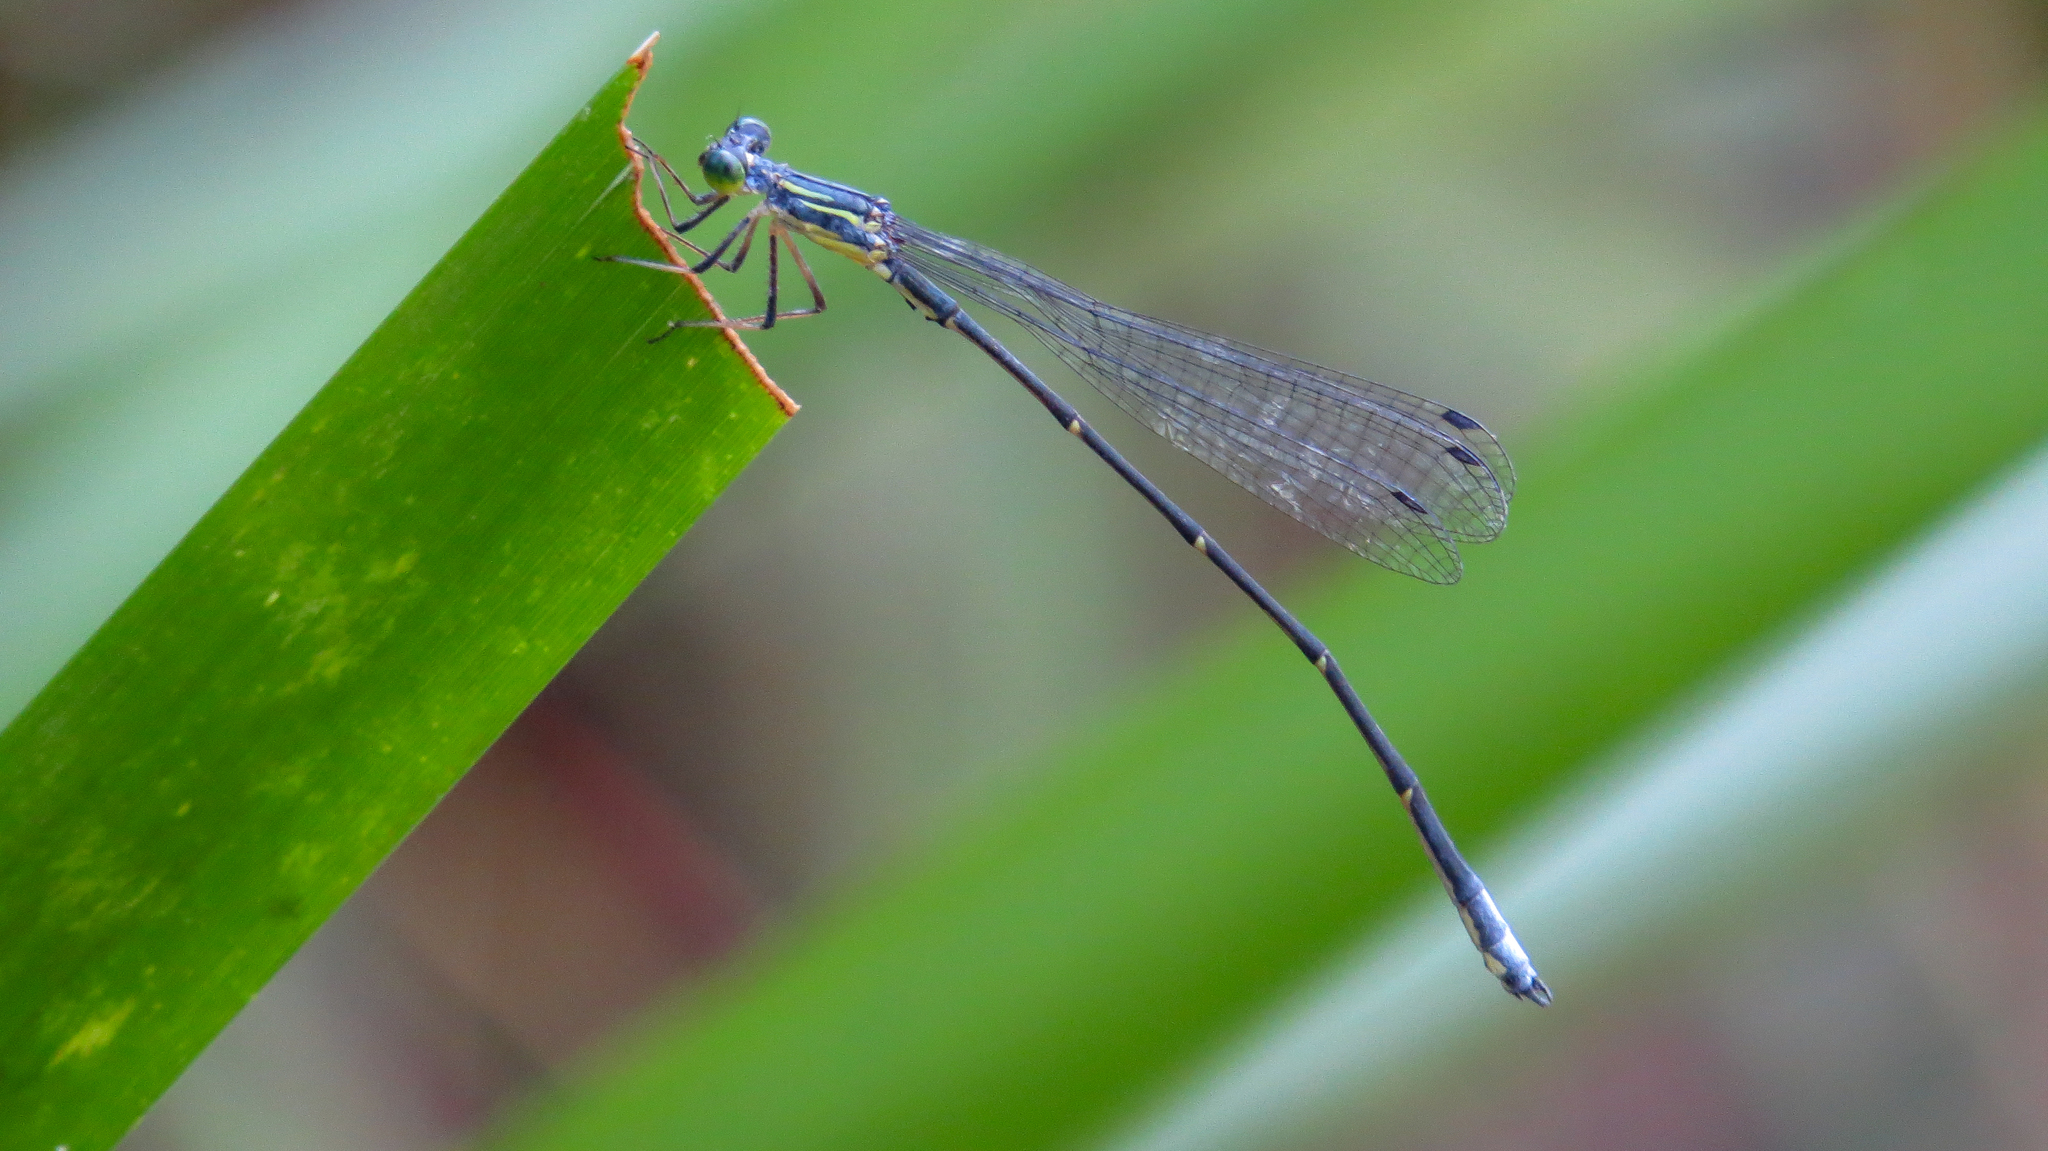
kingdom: Animalia
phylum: Arthropoda
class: Insecta
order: Odonata
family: Isostictidae
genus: Neosticta
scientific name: Neosticta canescens
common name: Southern pinfly
